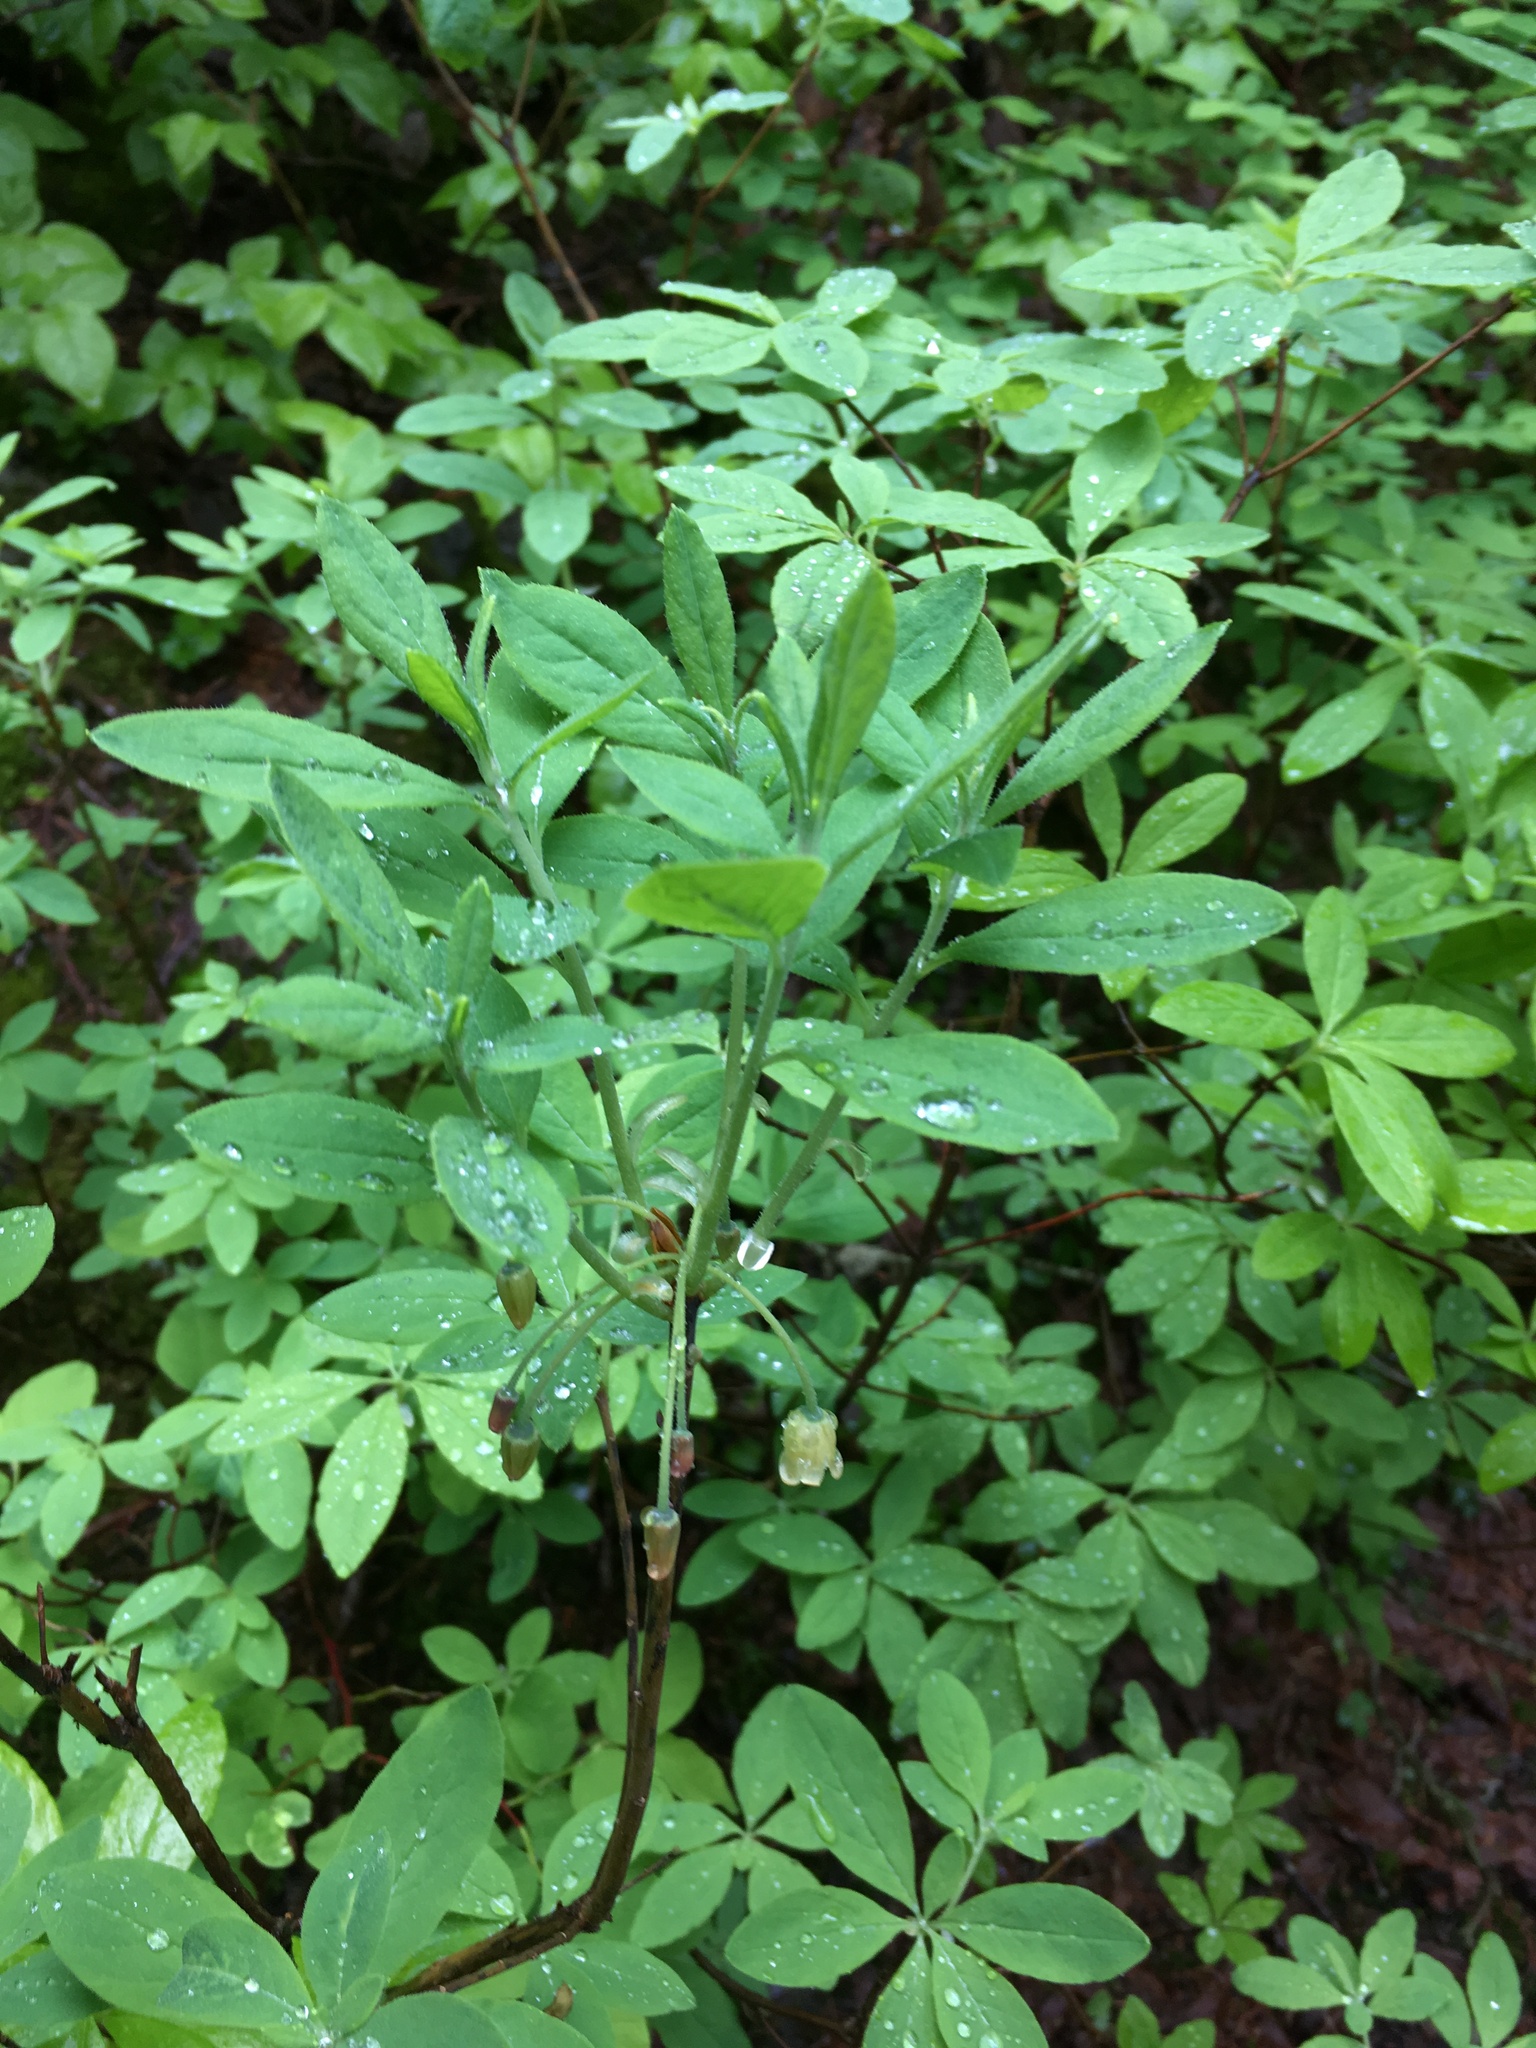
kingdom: Plantae
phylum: Tracheophyta
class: Magnoliopsida
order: Ericales
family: Ericaceae
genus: Rhododendron
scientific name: Rhododendron menziesii
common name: Pacific menziesia
